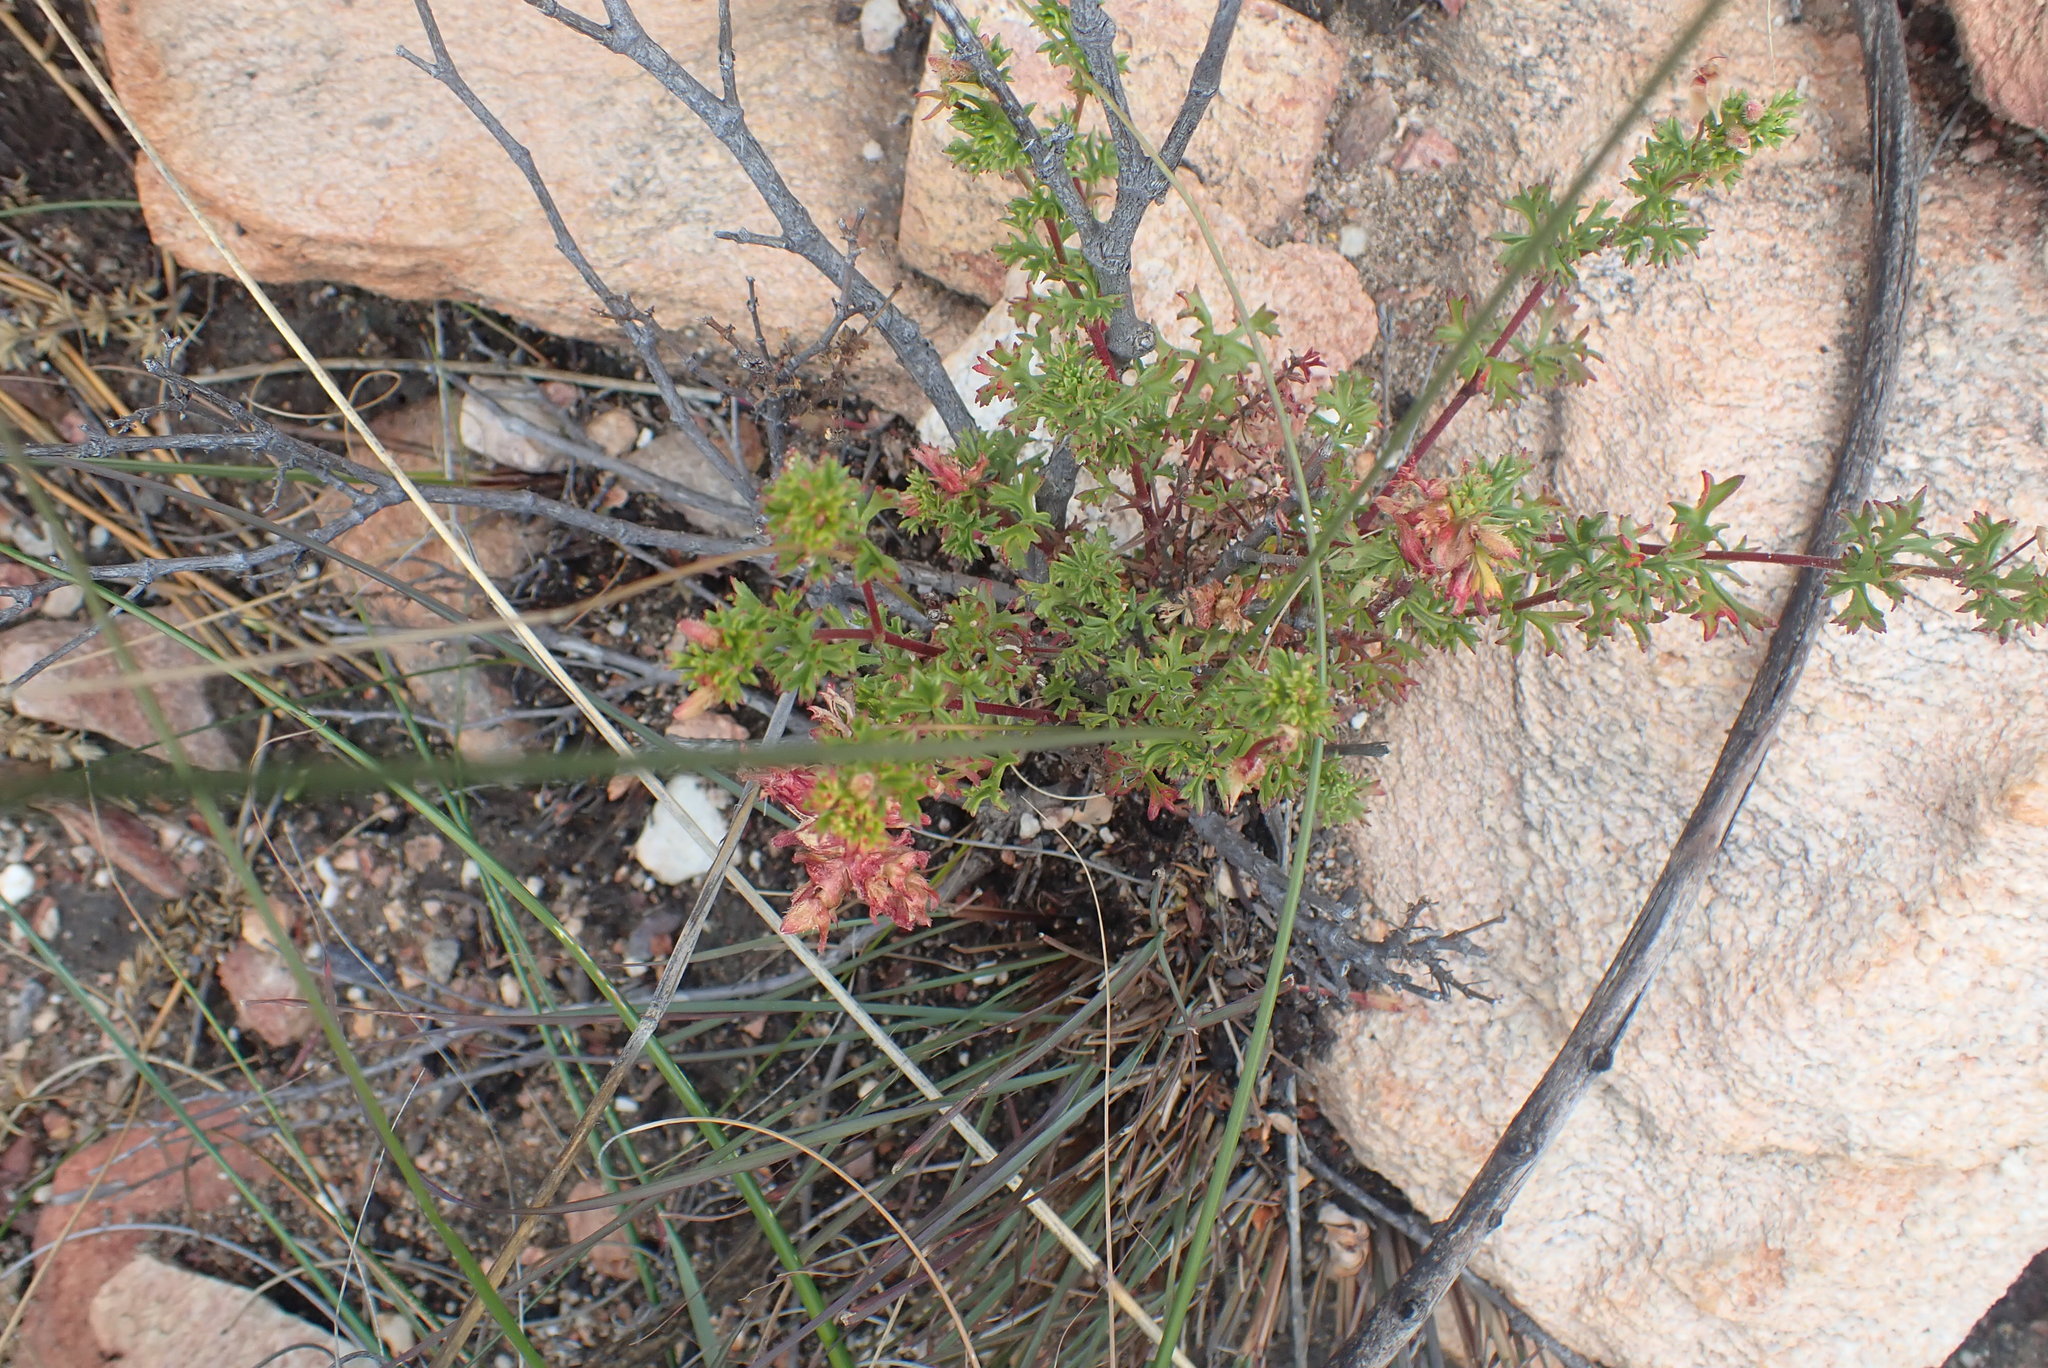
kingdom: Plantae
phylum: Tracheophyta
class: Magnoliopsida
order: Geraniales
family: Geraniaceae
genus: Pelargonium
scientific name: Pelargonium ternatum
